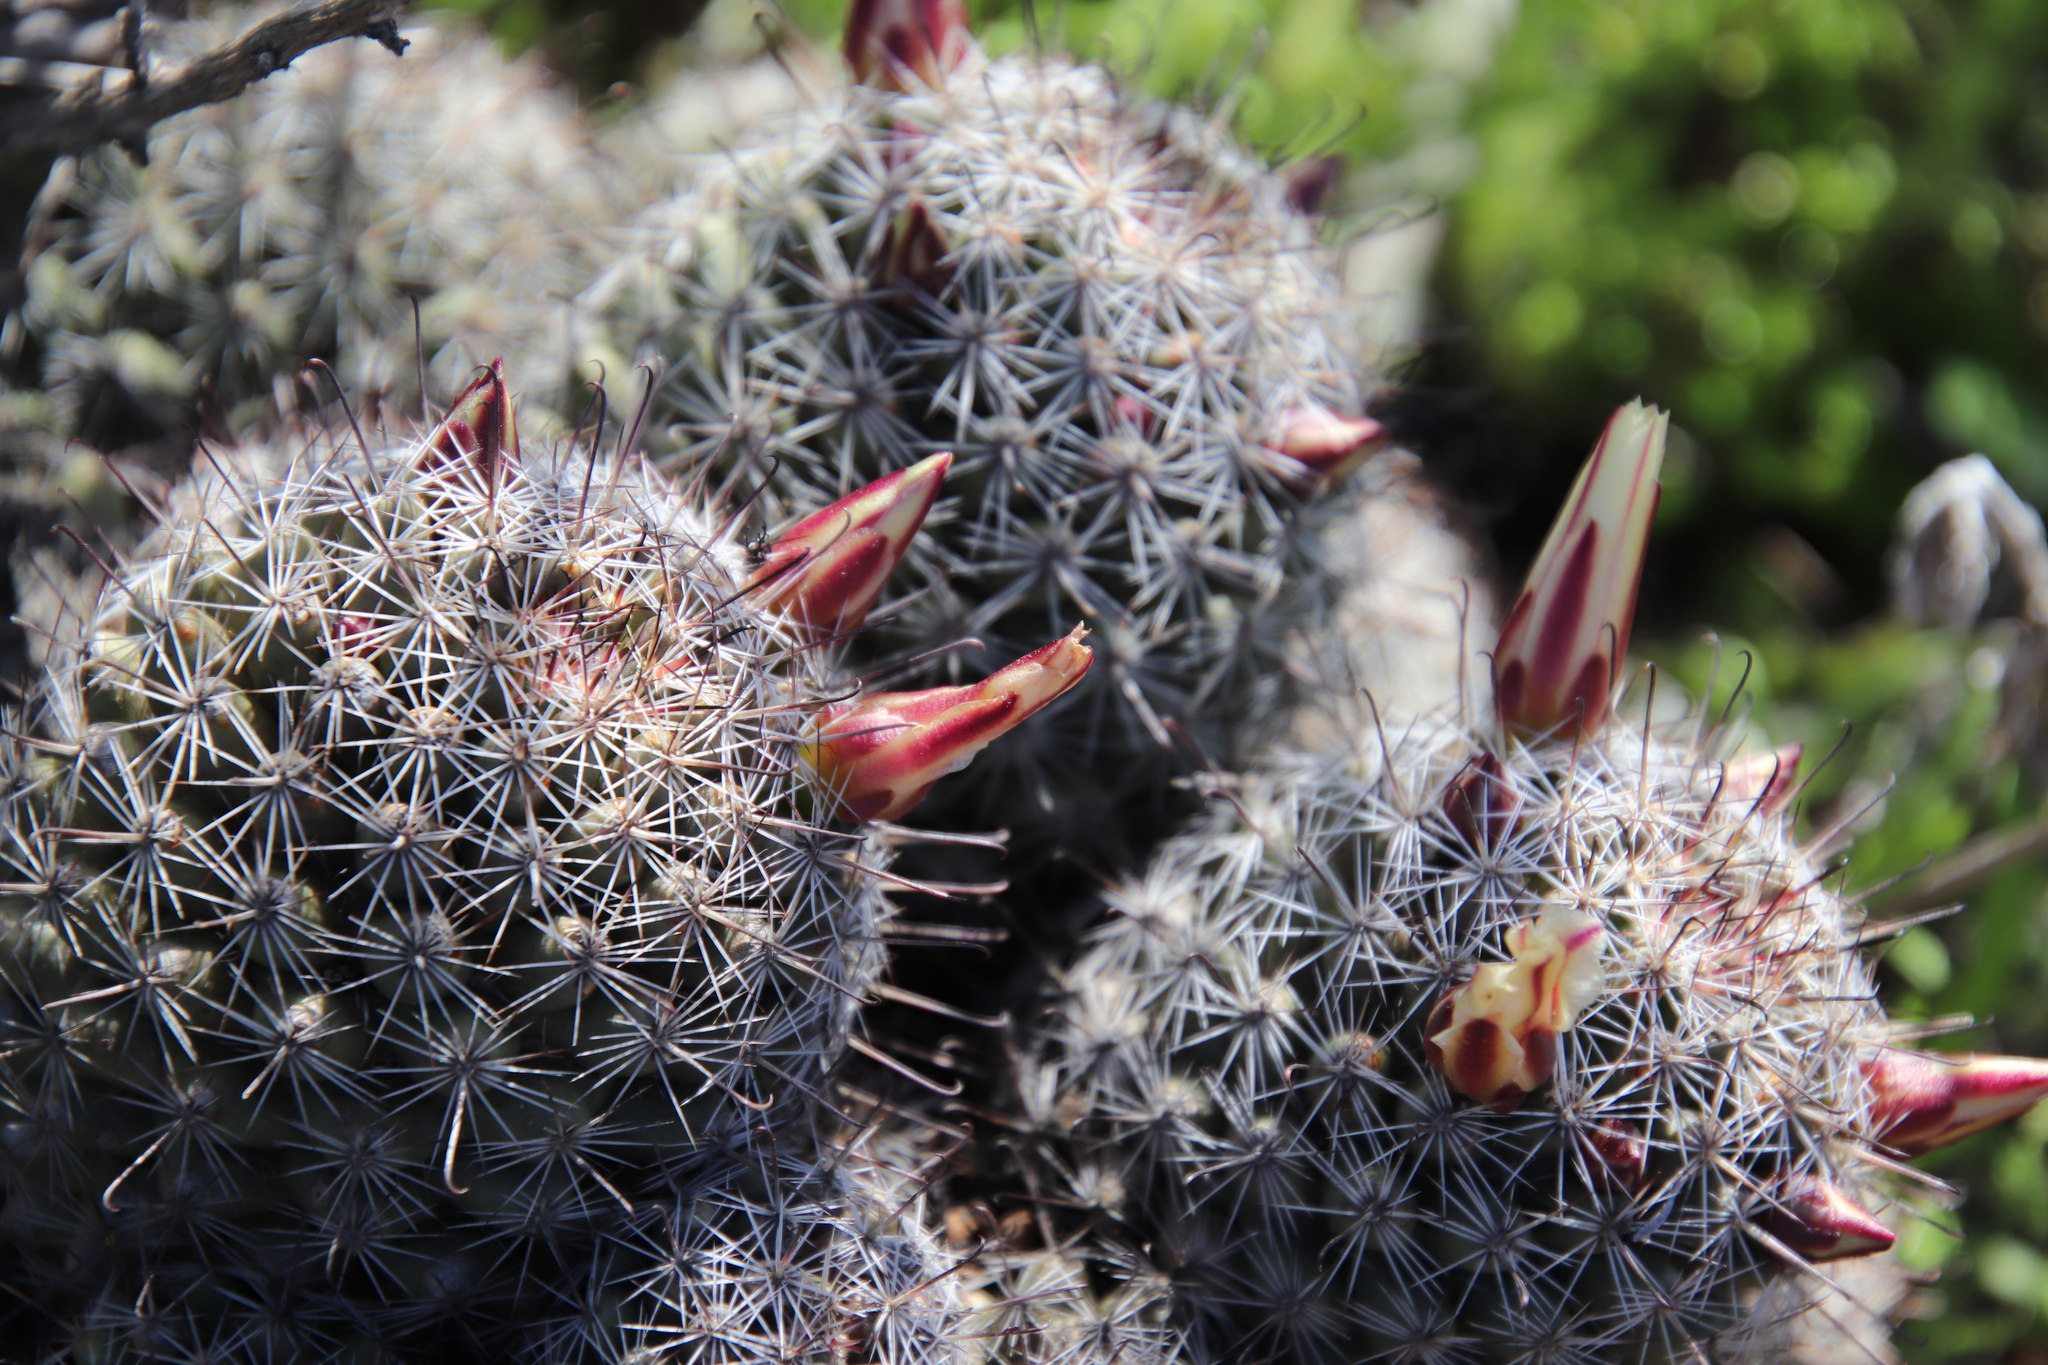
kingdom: Plantae
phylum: Tracheophyta
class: Magnoliopsida
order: Caryophyllales
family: Cactaceae
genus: Cochemiea
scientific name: Cochemiea dioica
